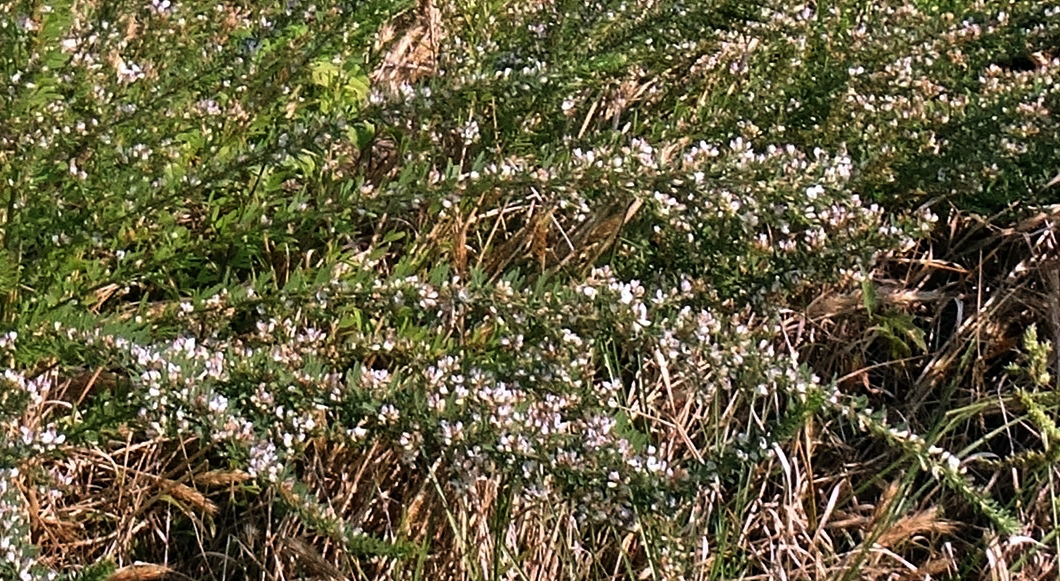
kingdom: Plantae
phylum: Tracheophyta
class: Magnoliopsida
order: Fabales
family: Fabaceae
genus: Lespedeza
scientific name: Lespedeza cuneata
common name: Chinese bush-clover
